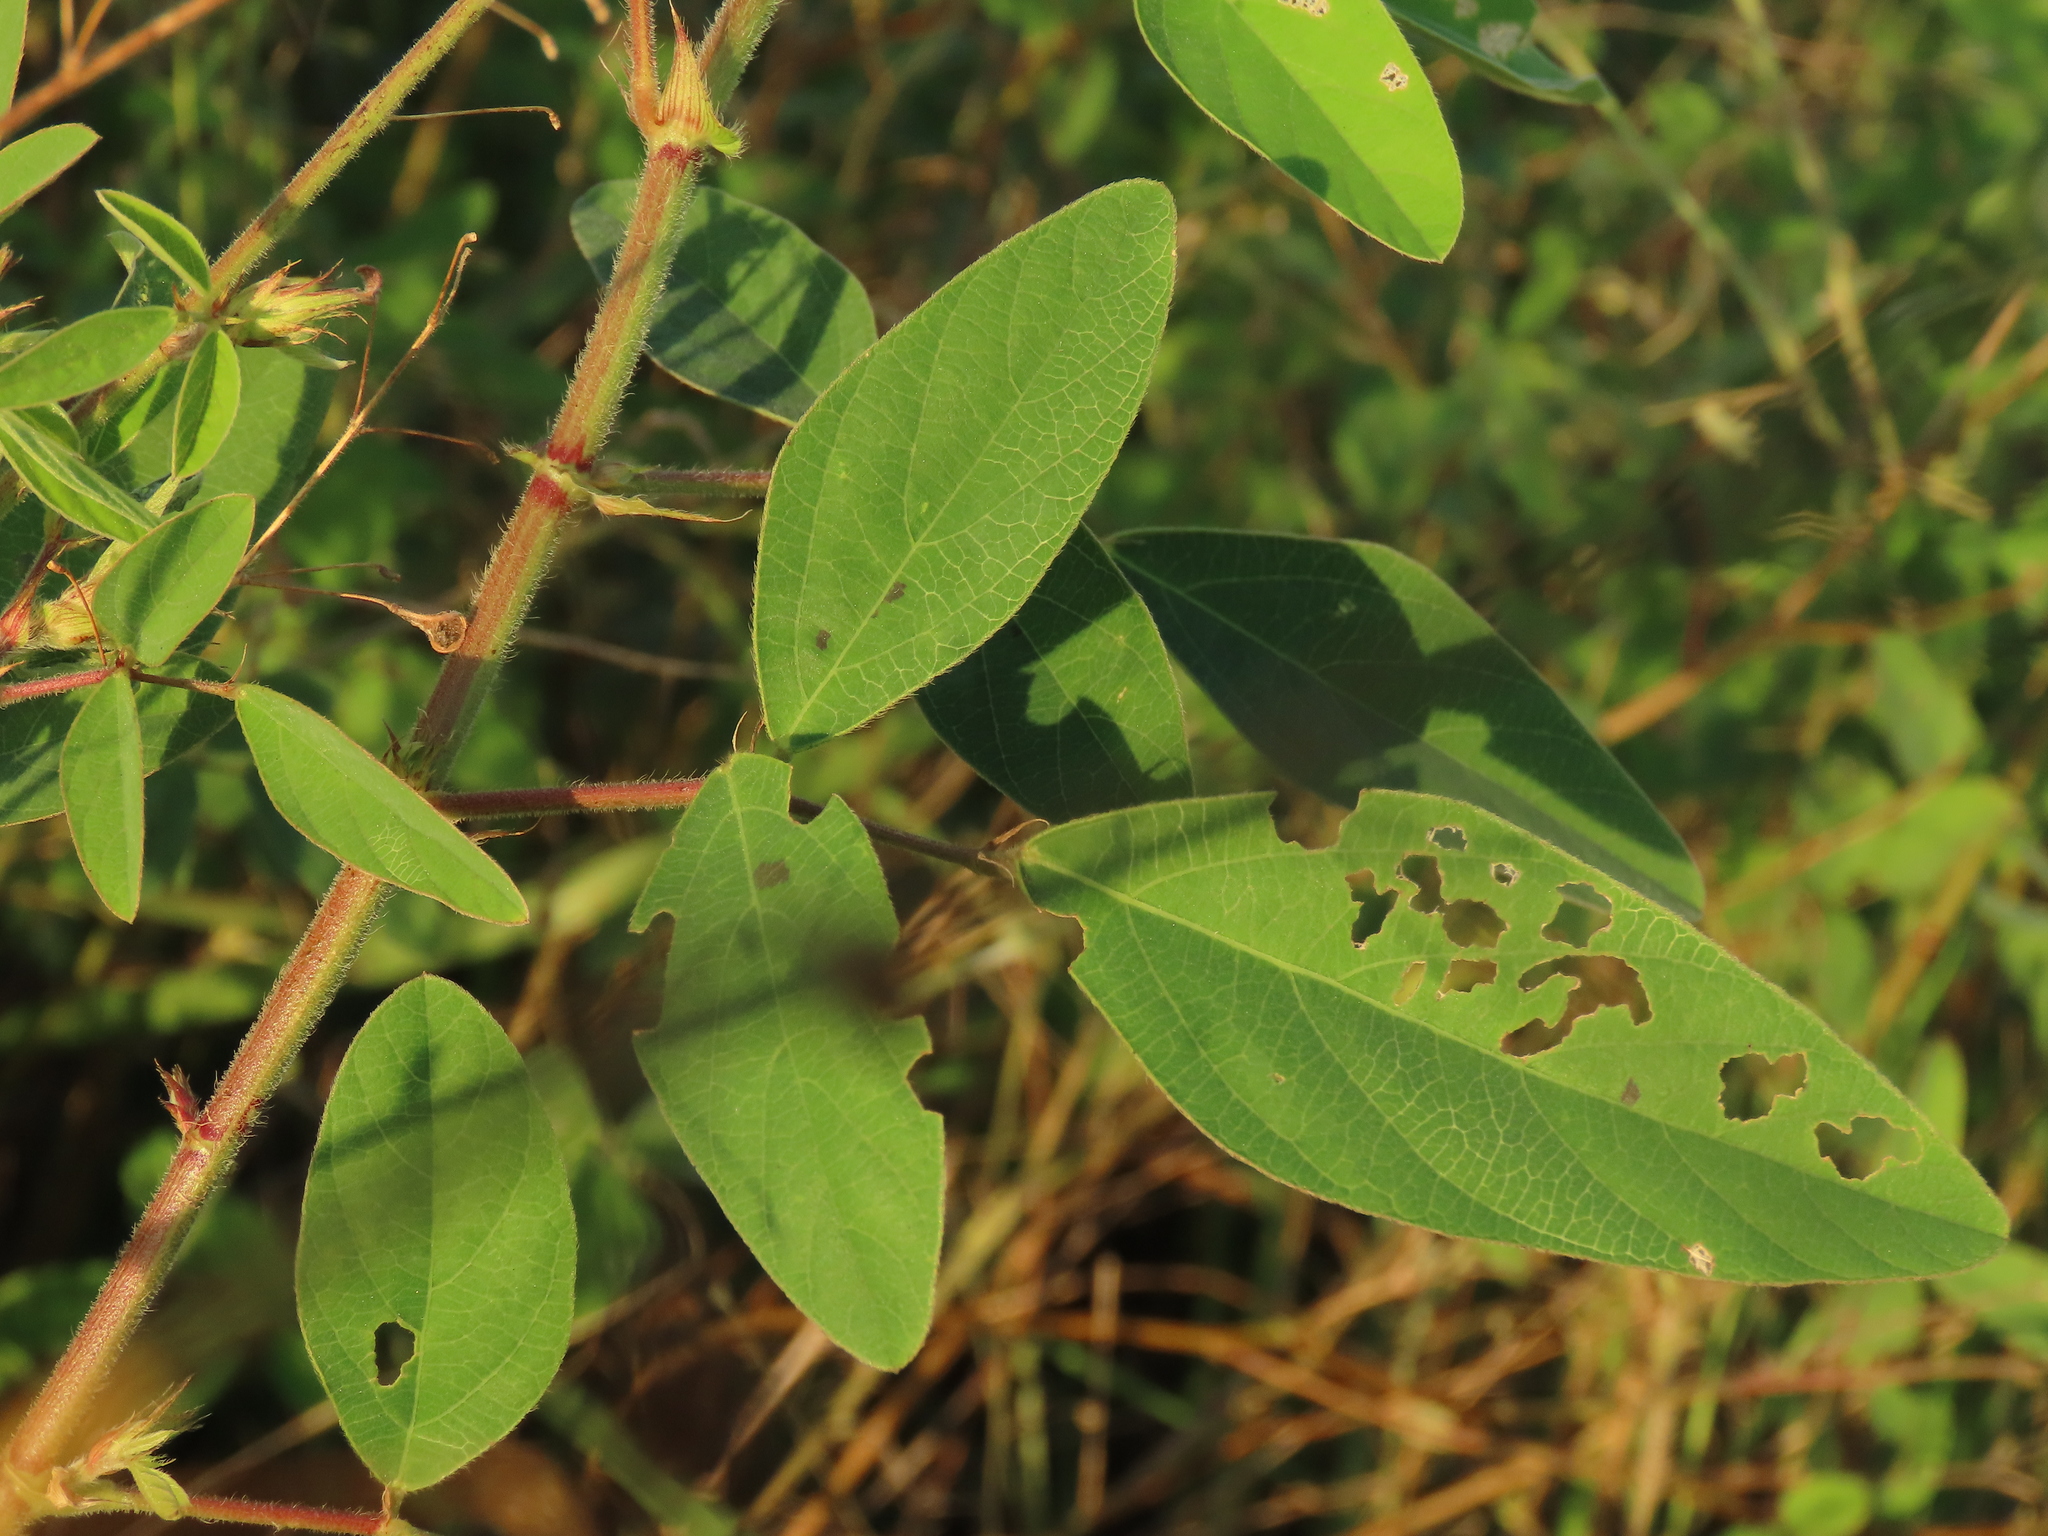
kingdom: Plantae
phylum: Tracheophyta
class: Magnoliopsida
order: Fabales
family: Fabaceae
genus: Desmodium
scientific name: Desmodium tortuosum
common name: Dixie ticktrefoil
